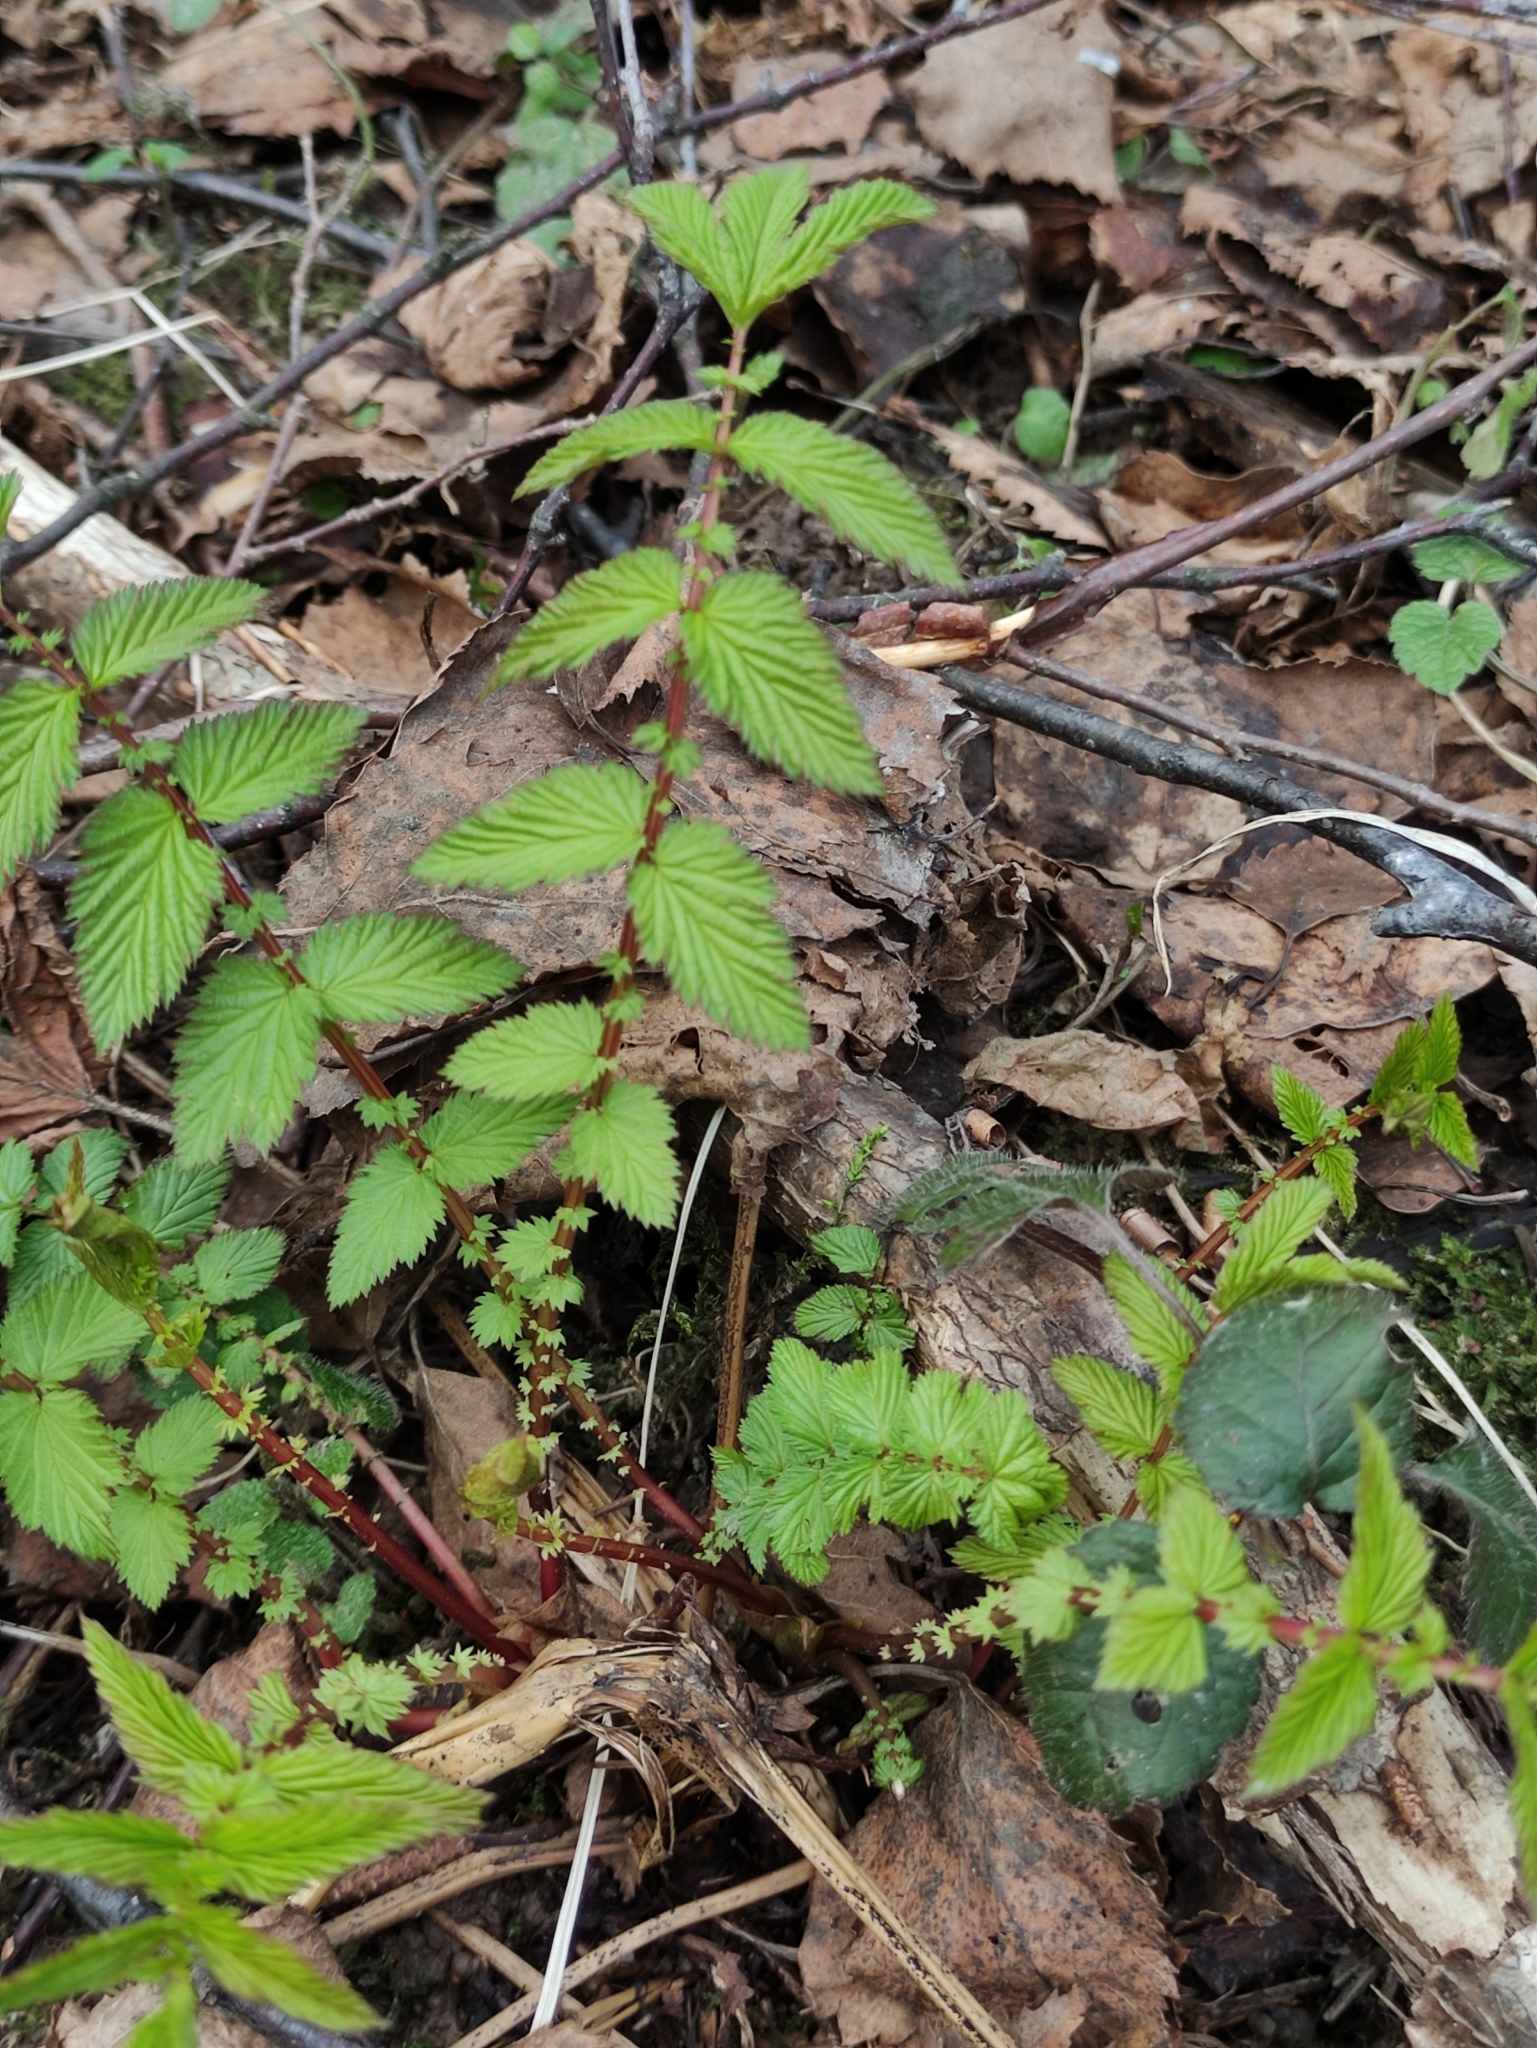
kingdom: Plantae
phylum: Tracheophyta
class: Magnoliopsida
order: Rosales
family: Rosaceae
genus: Filipendula
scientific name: Filipendula ulmaria
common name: Meadowsweet
